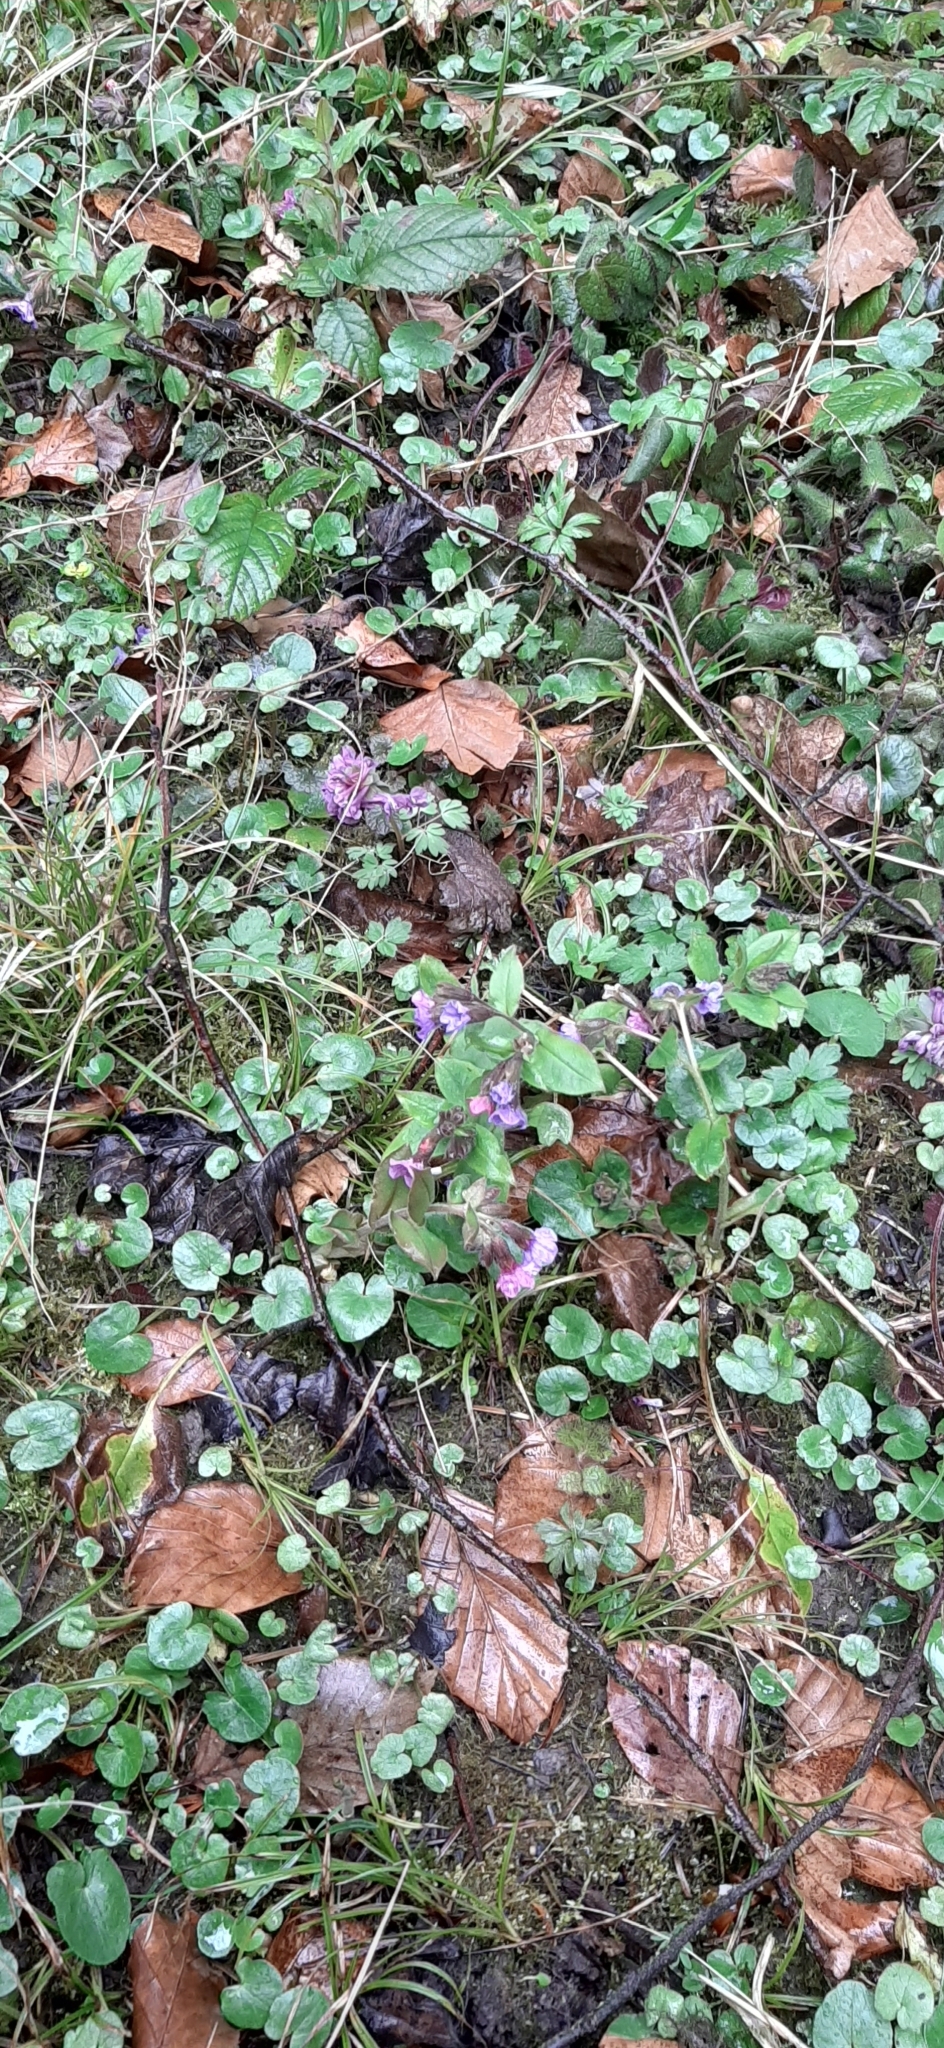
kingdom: Plantae
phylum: Tracheophyta
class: Magnoliopsida
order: Boraginales
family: Boraginaceae
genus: Pulmonaria
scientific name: Pulmonaria obscura
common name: Suffolk lungwort
